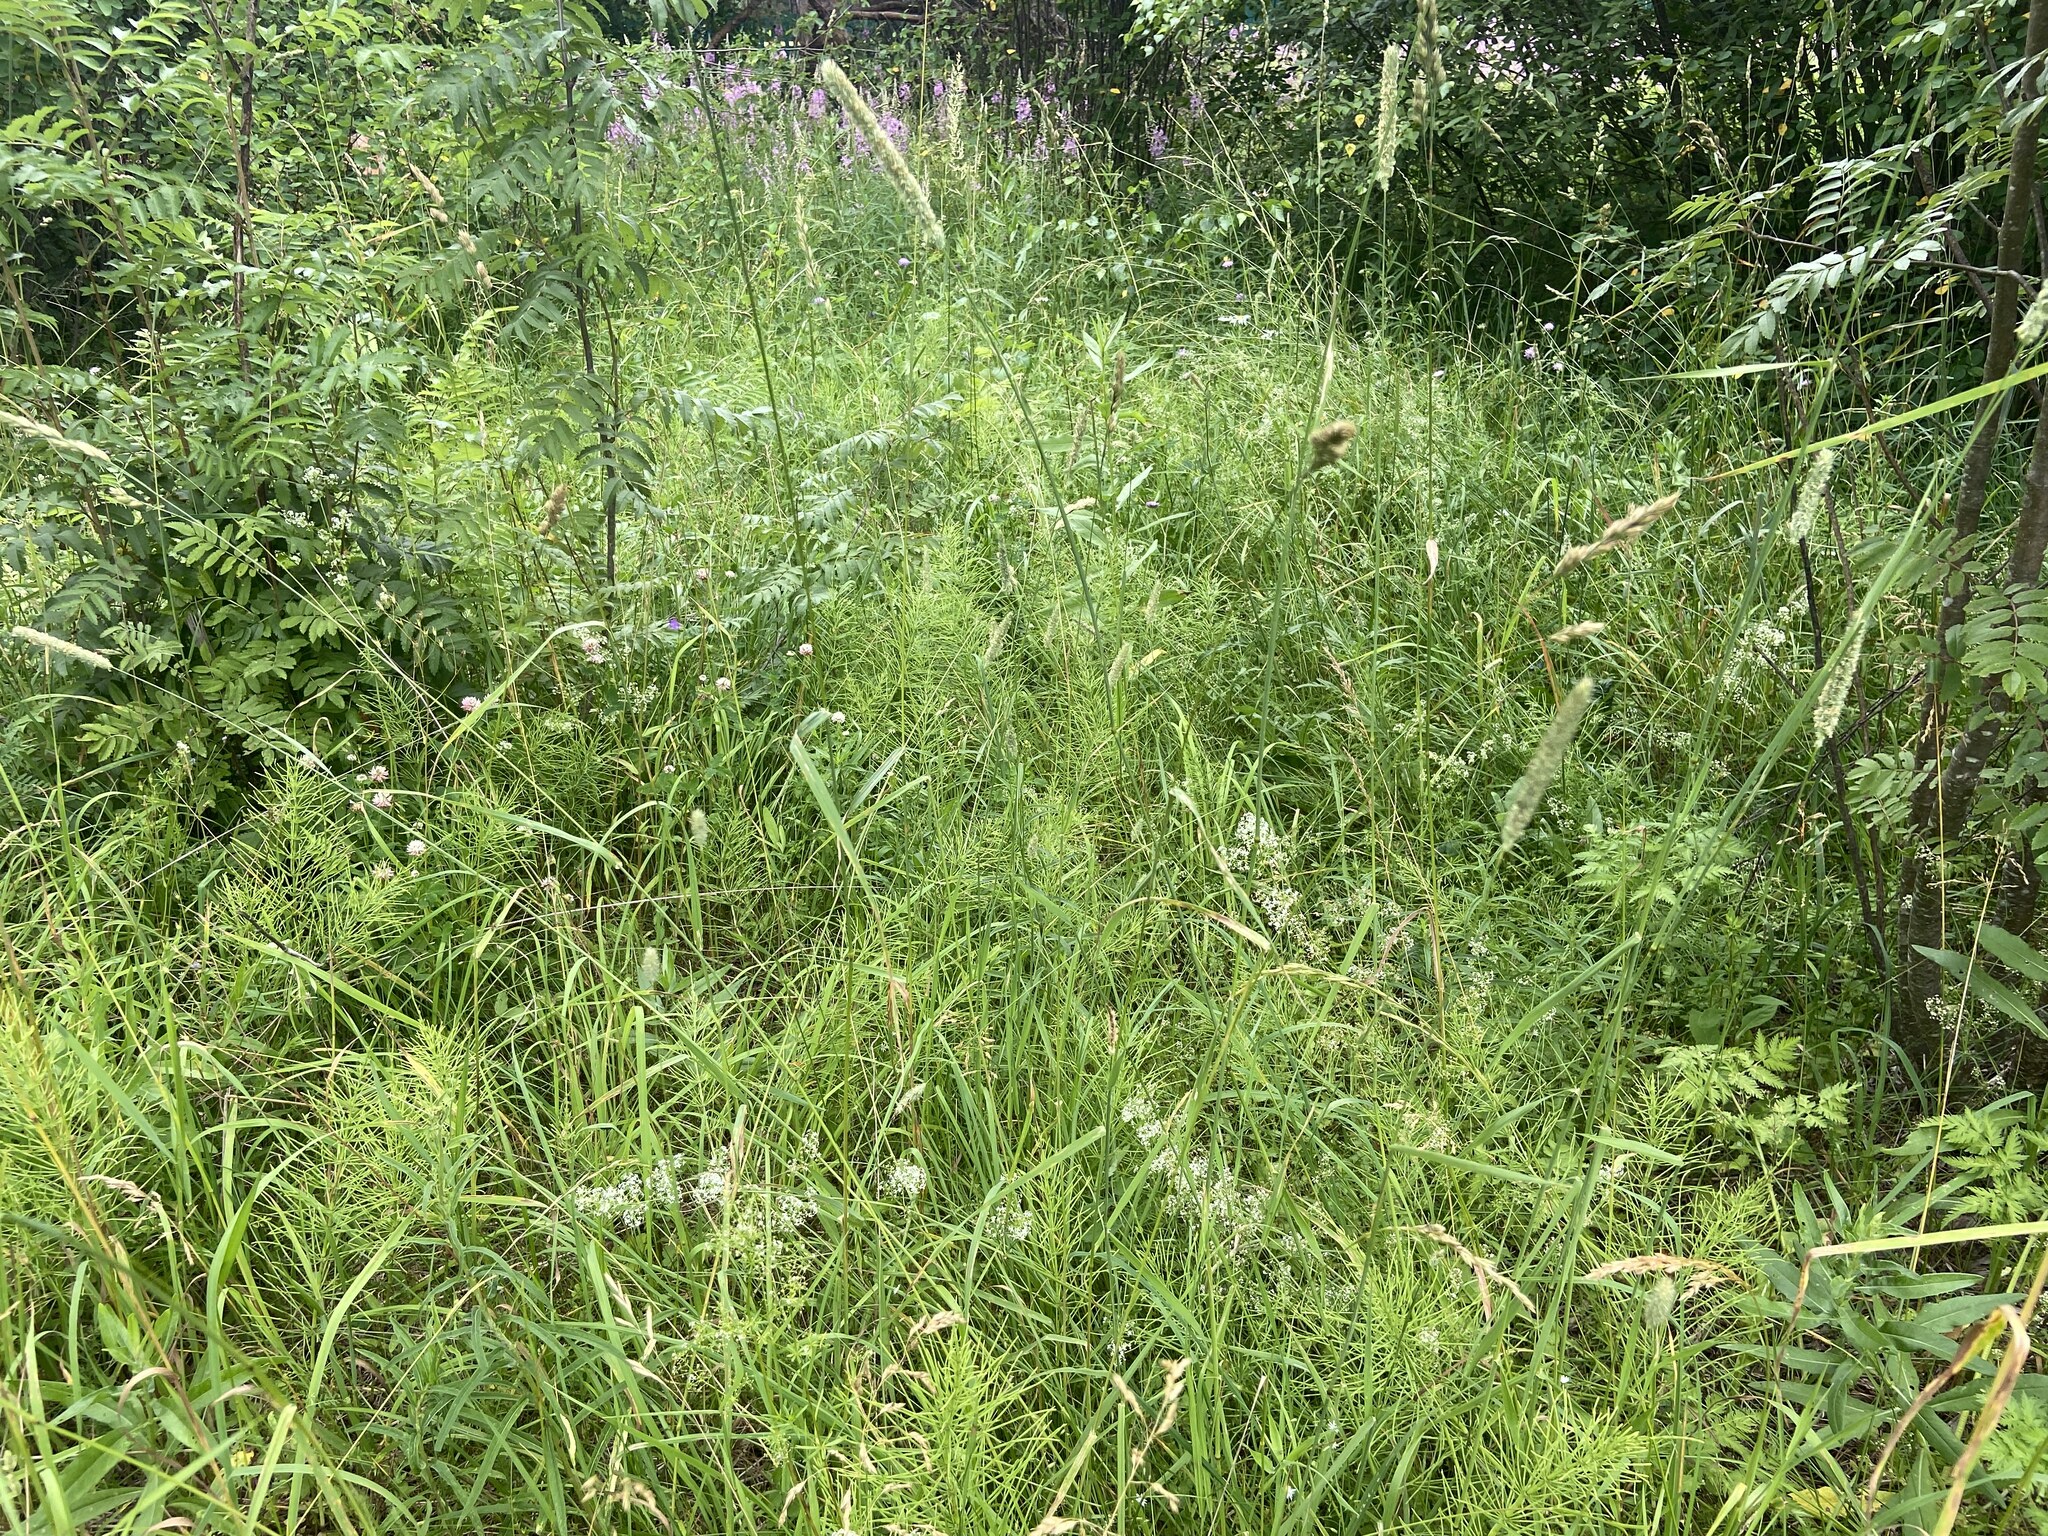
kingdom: Plantae
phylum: Tracheophyta
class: Liliopsida
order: Poales
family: Poaceae
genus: Phleum
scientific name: Phleum pratense
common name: Timothy grass
